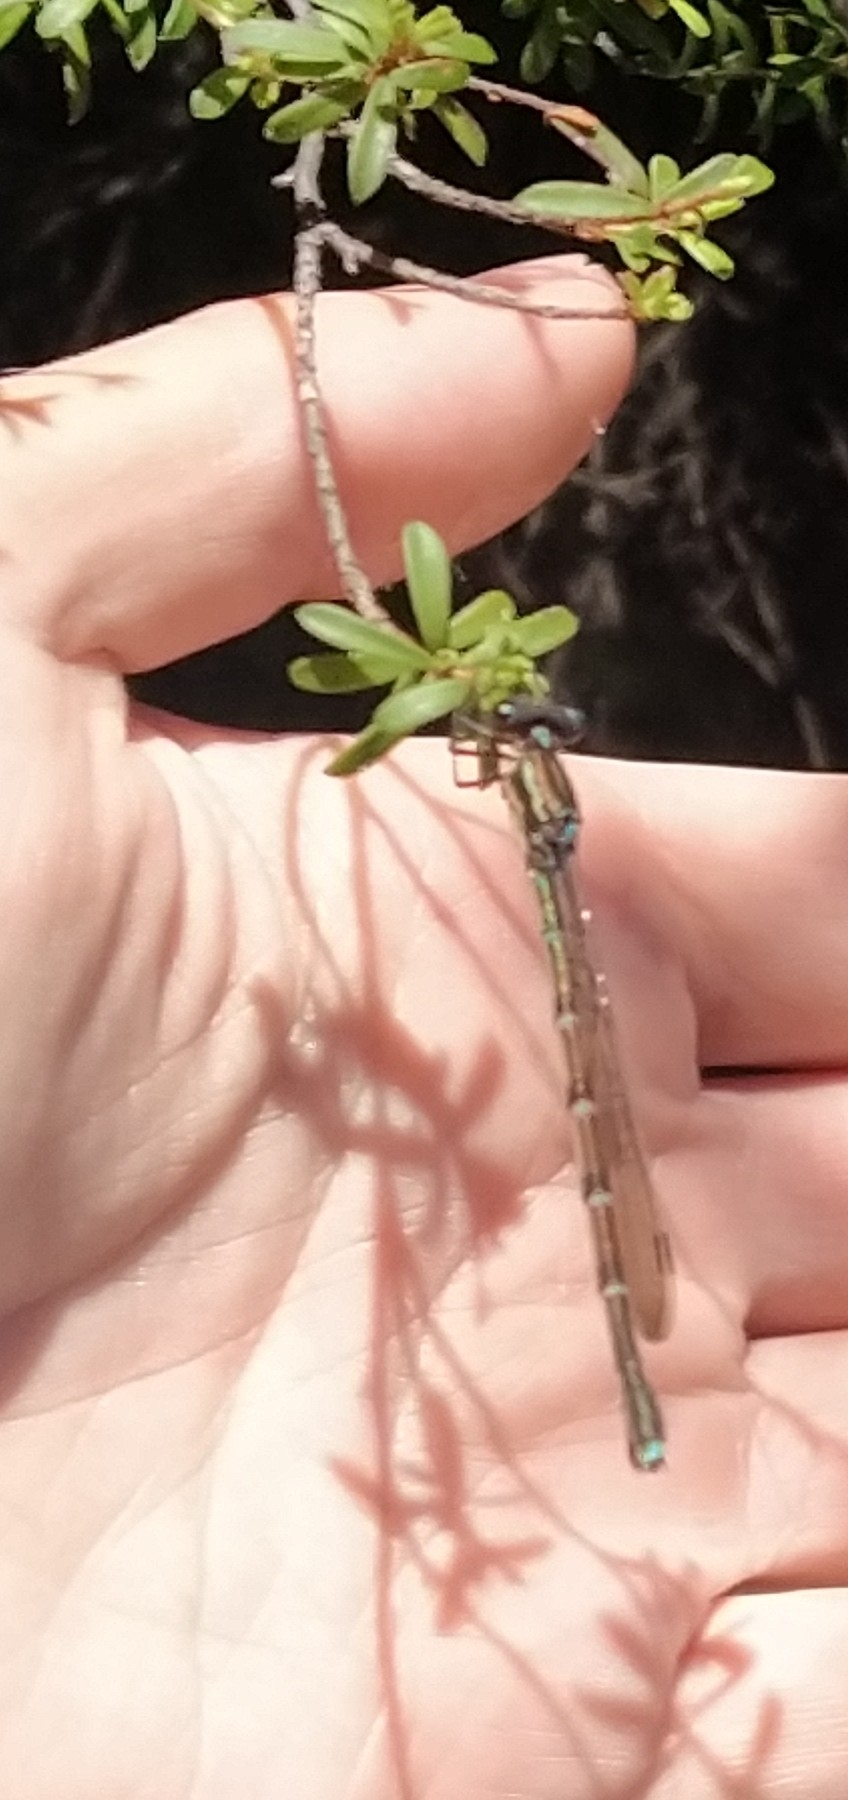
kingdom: Animalia
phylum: Arthropoda
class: Insecta
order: Odonata
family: Lestidae
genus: Austrolestes
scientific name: Austrolestes colensonis
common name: Blue damselfly
